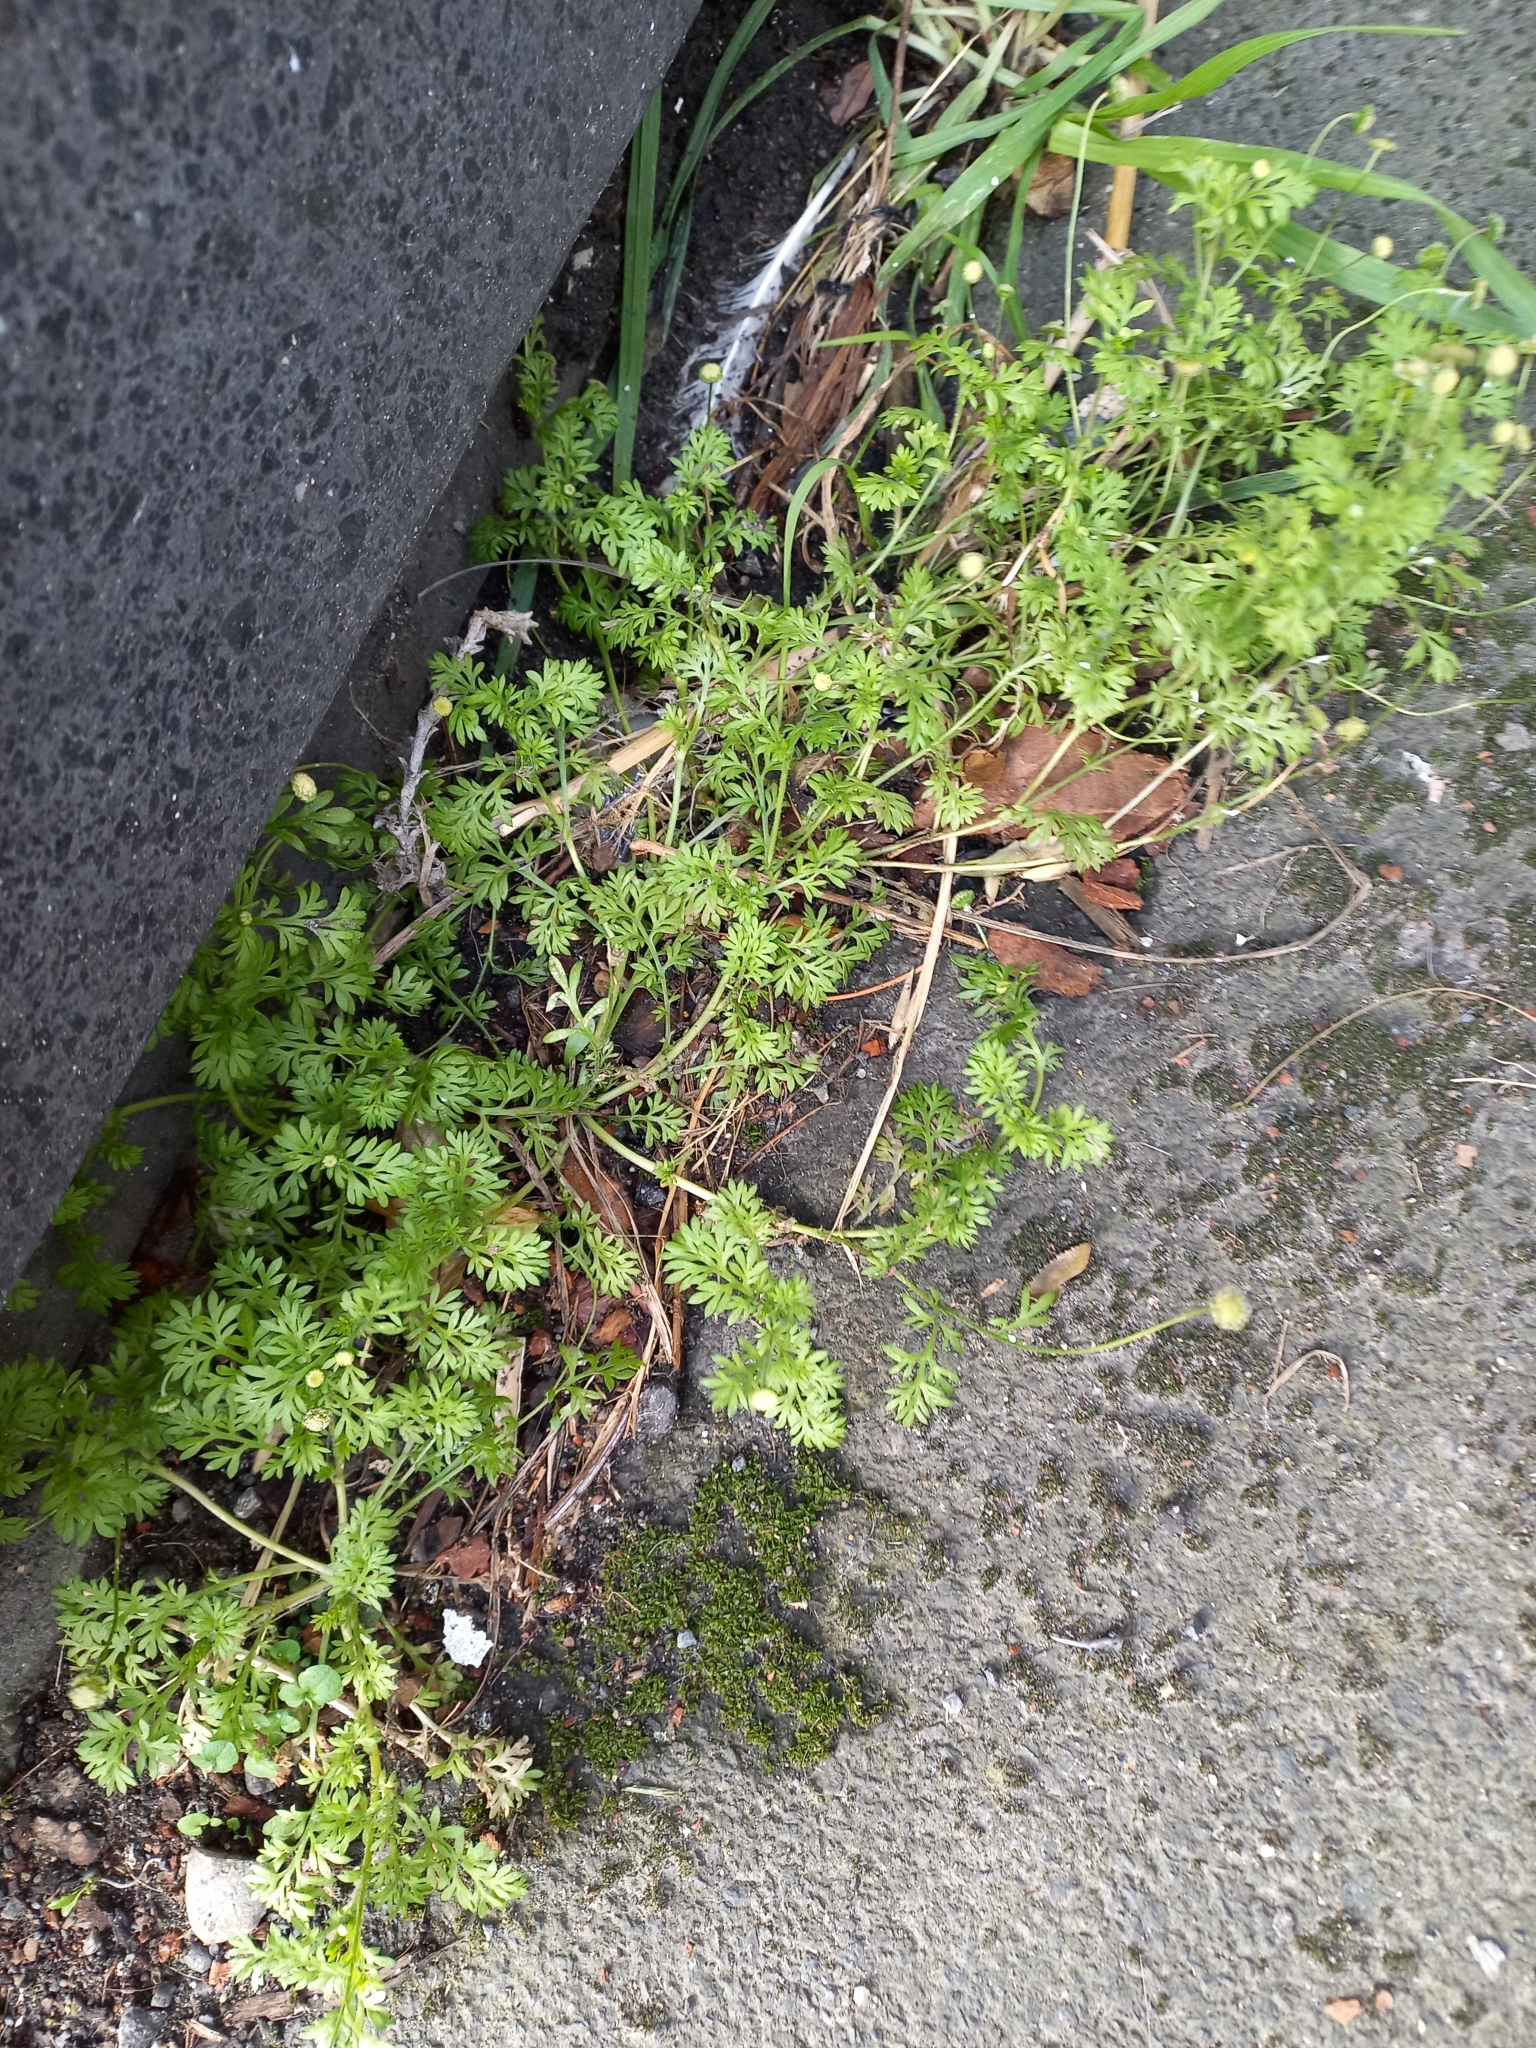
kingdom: Plantae
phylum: Tracheophyta
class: Magnoliopsida
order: Asterales
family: Asteraceae
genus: Cotula
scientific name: Cotula australis
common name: Australian waterbuttons
